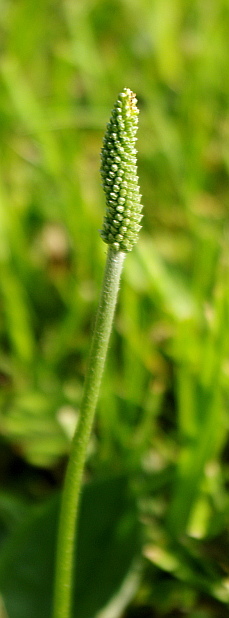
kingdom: Plantae
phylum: Tracheophyta
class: Magnoliopsida
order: Lamiales
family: Plantaginaceae
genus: Plantago
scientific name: Plantago media
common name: Hoary plantain
